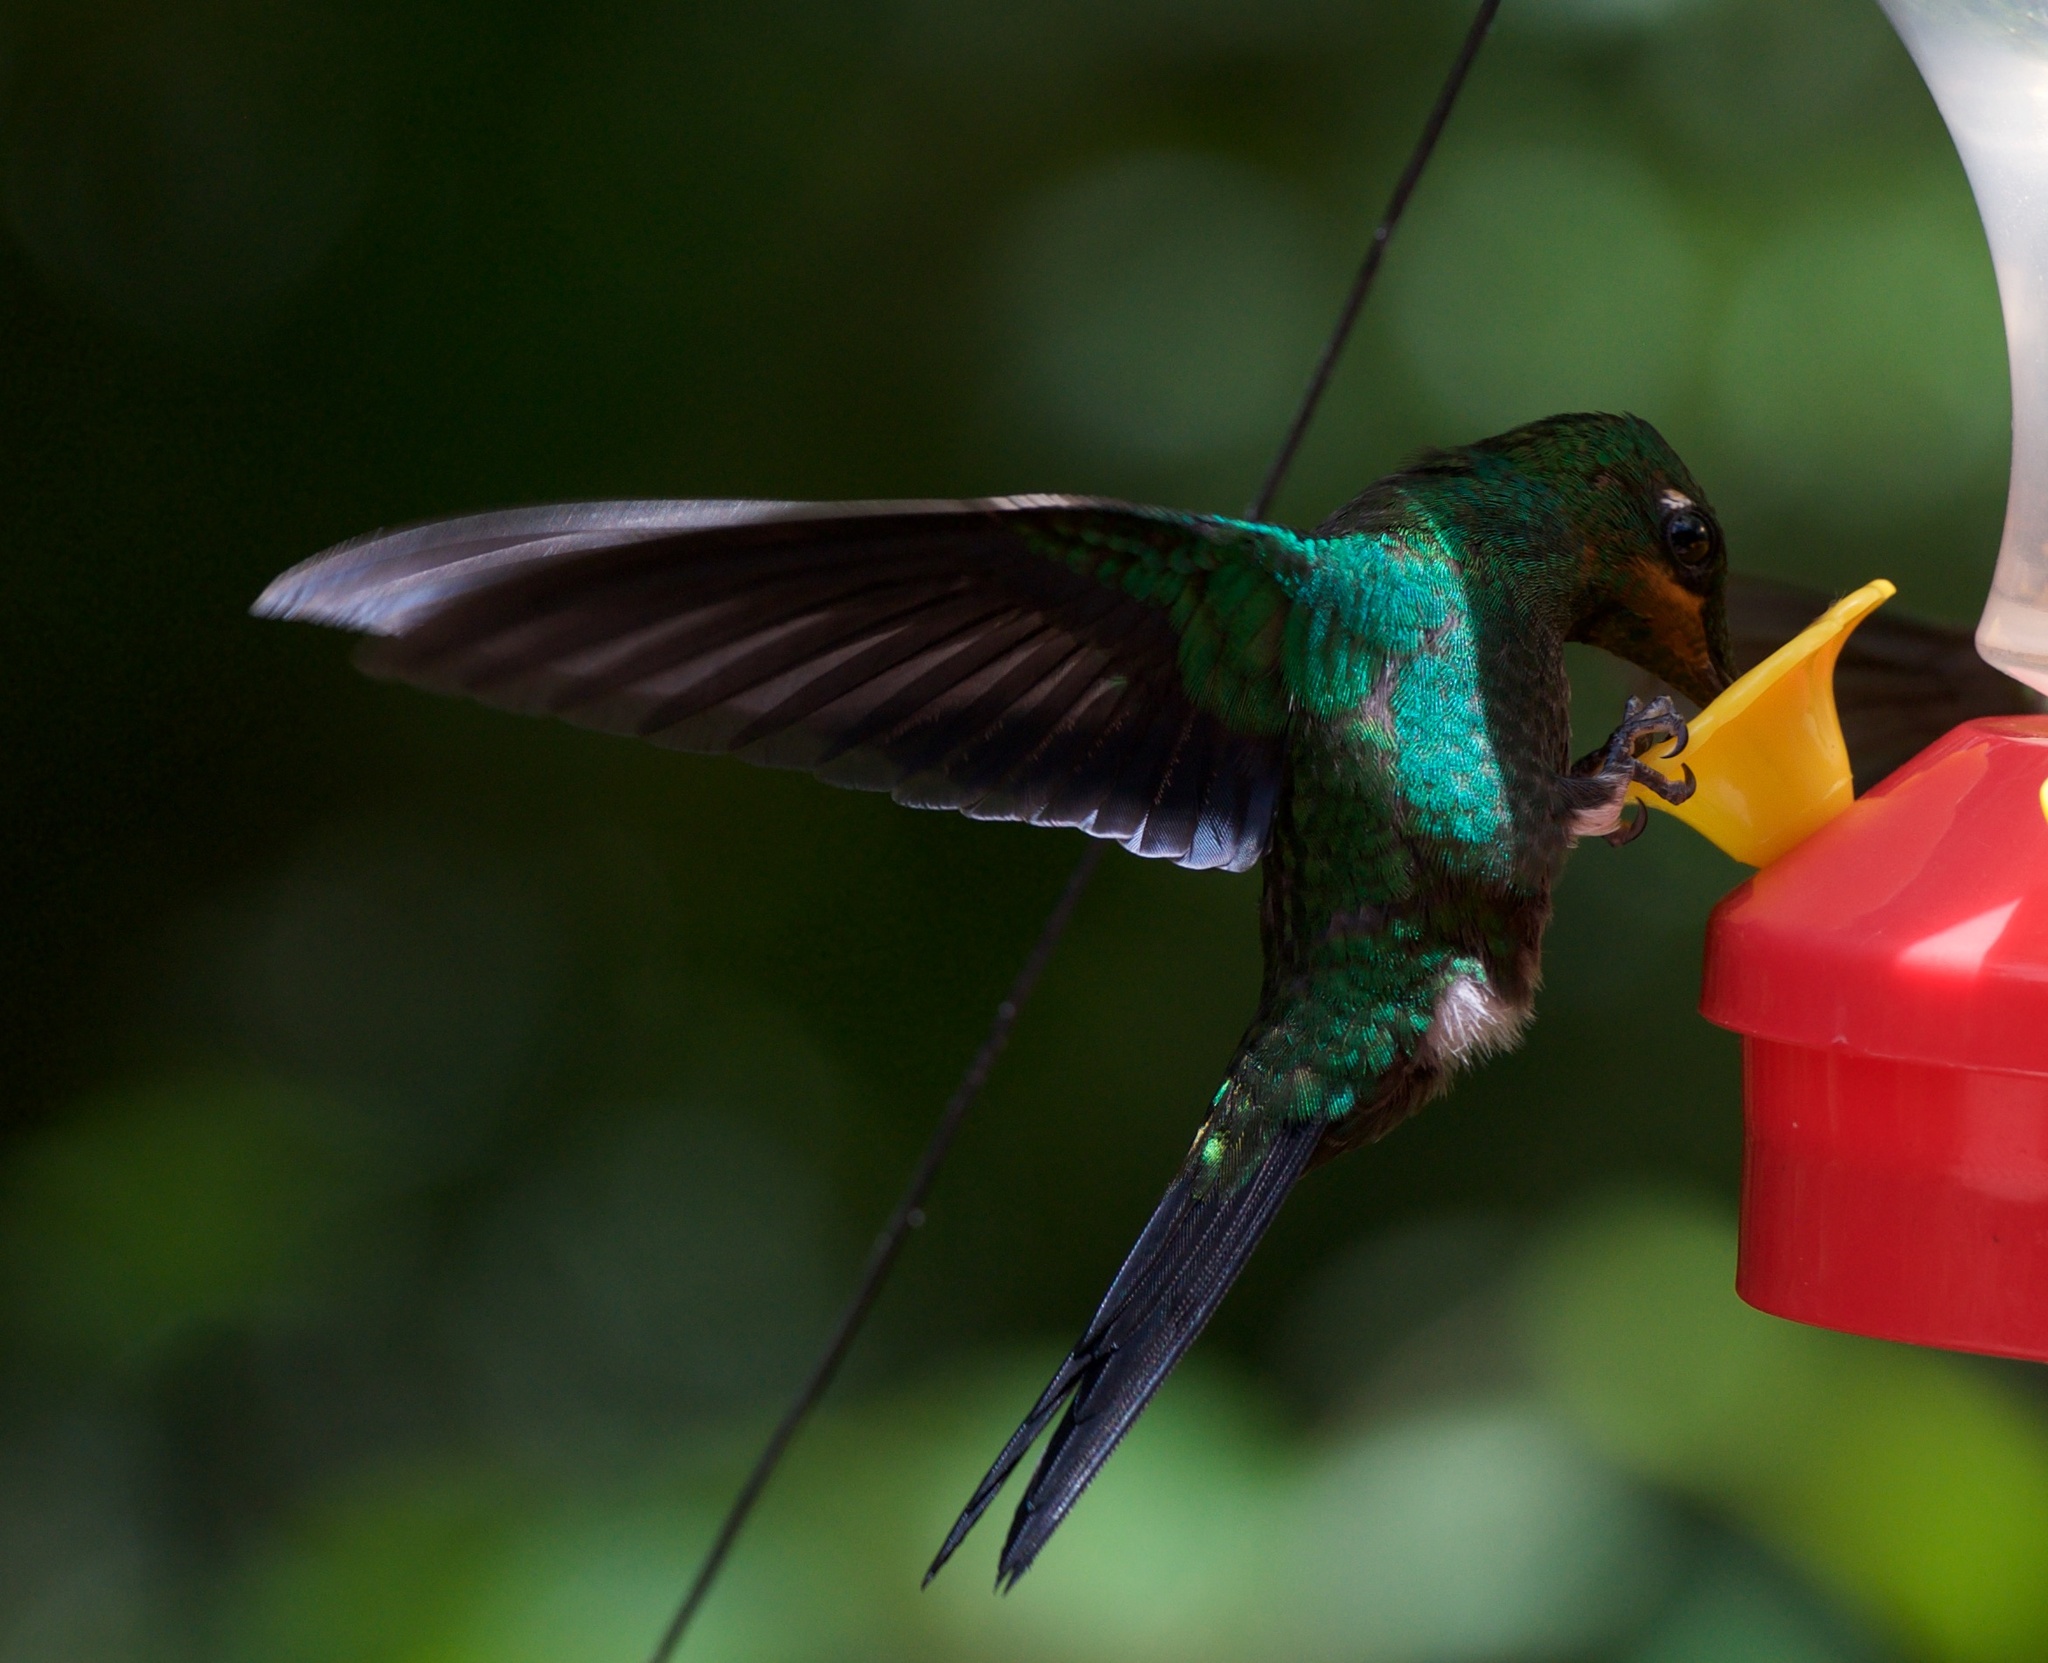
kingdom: Animalia
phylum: Chordata
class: Aves
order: Apodiformes
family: Trochilidae
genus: Heliodoxa
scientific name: Heliodoxa jacula
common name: Green-crowned brilliant
